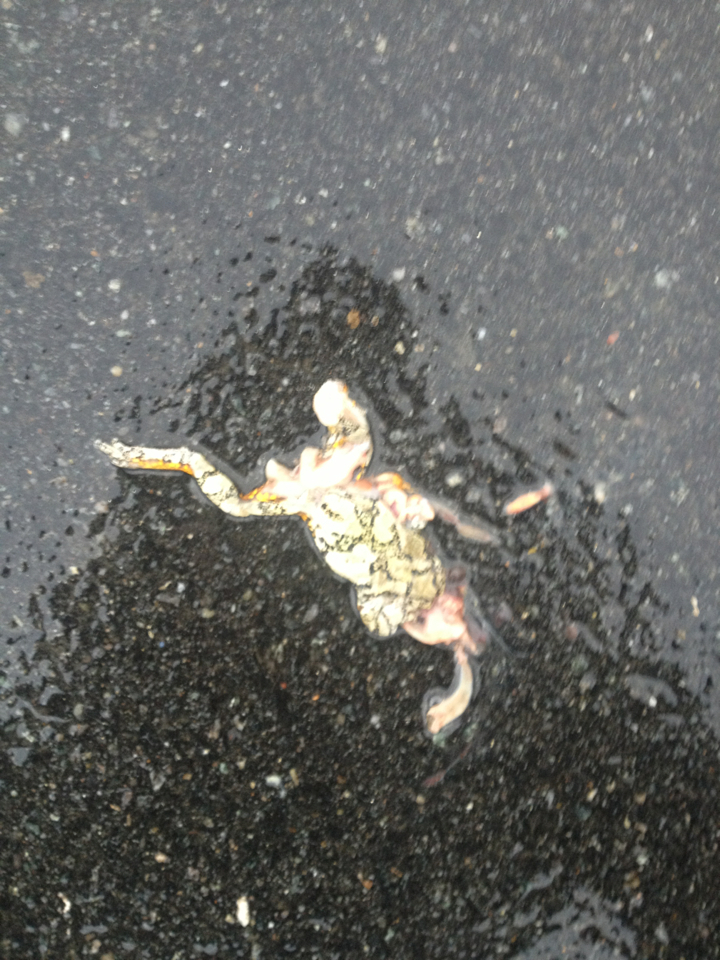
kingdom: Animalia
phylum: Chordata
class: Amphibia
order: Anura
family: Hylidae
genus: Dryophytes
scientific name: Dryophytes versicolor
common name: Gray treefrog
